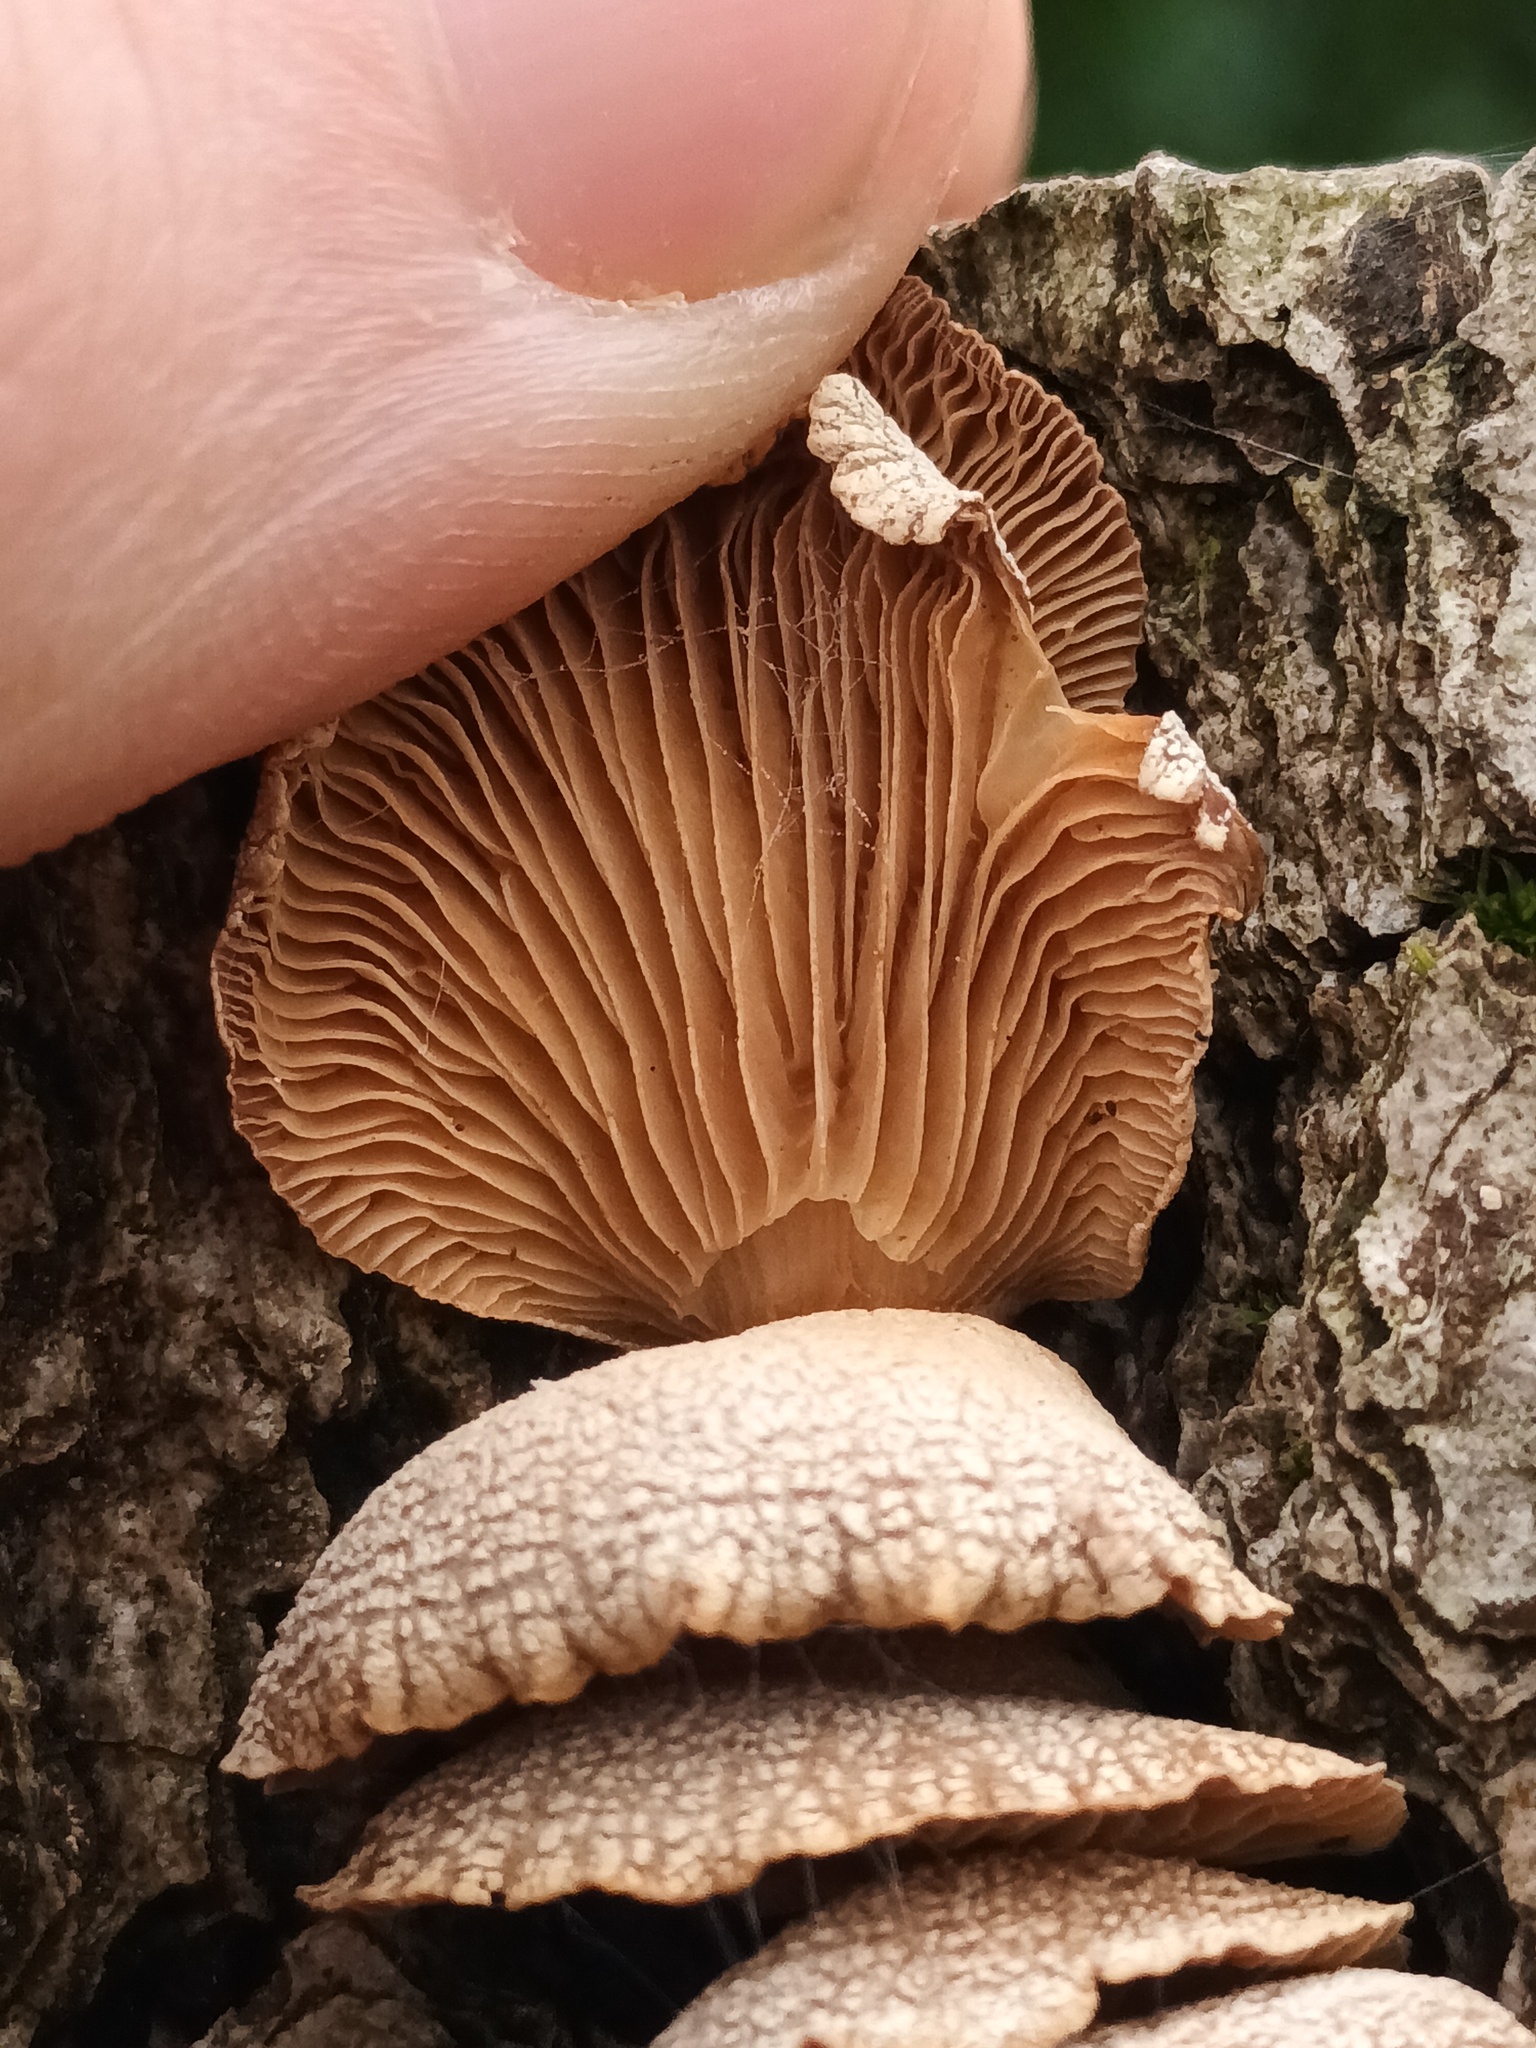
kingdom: Fungi
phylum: Basidiomycota
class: Agaricomycetes
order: Agaricales
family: Mycenaceae
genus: Panellus
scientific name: Panellus stipticus
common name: Bitter oysterling
